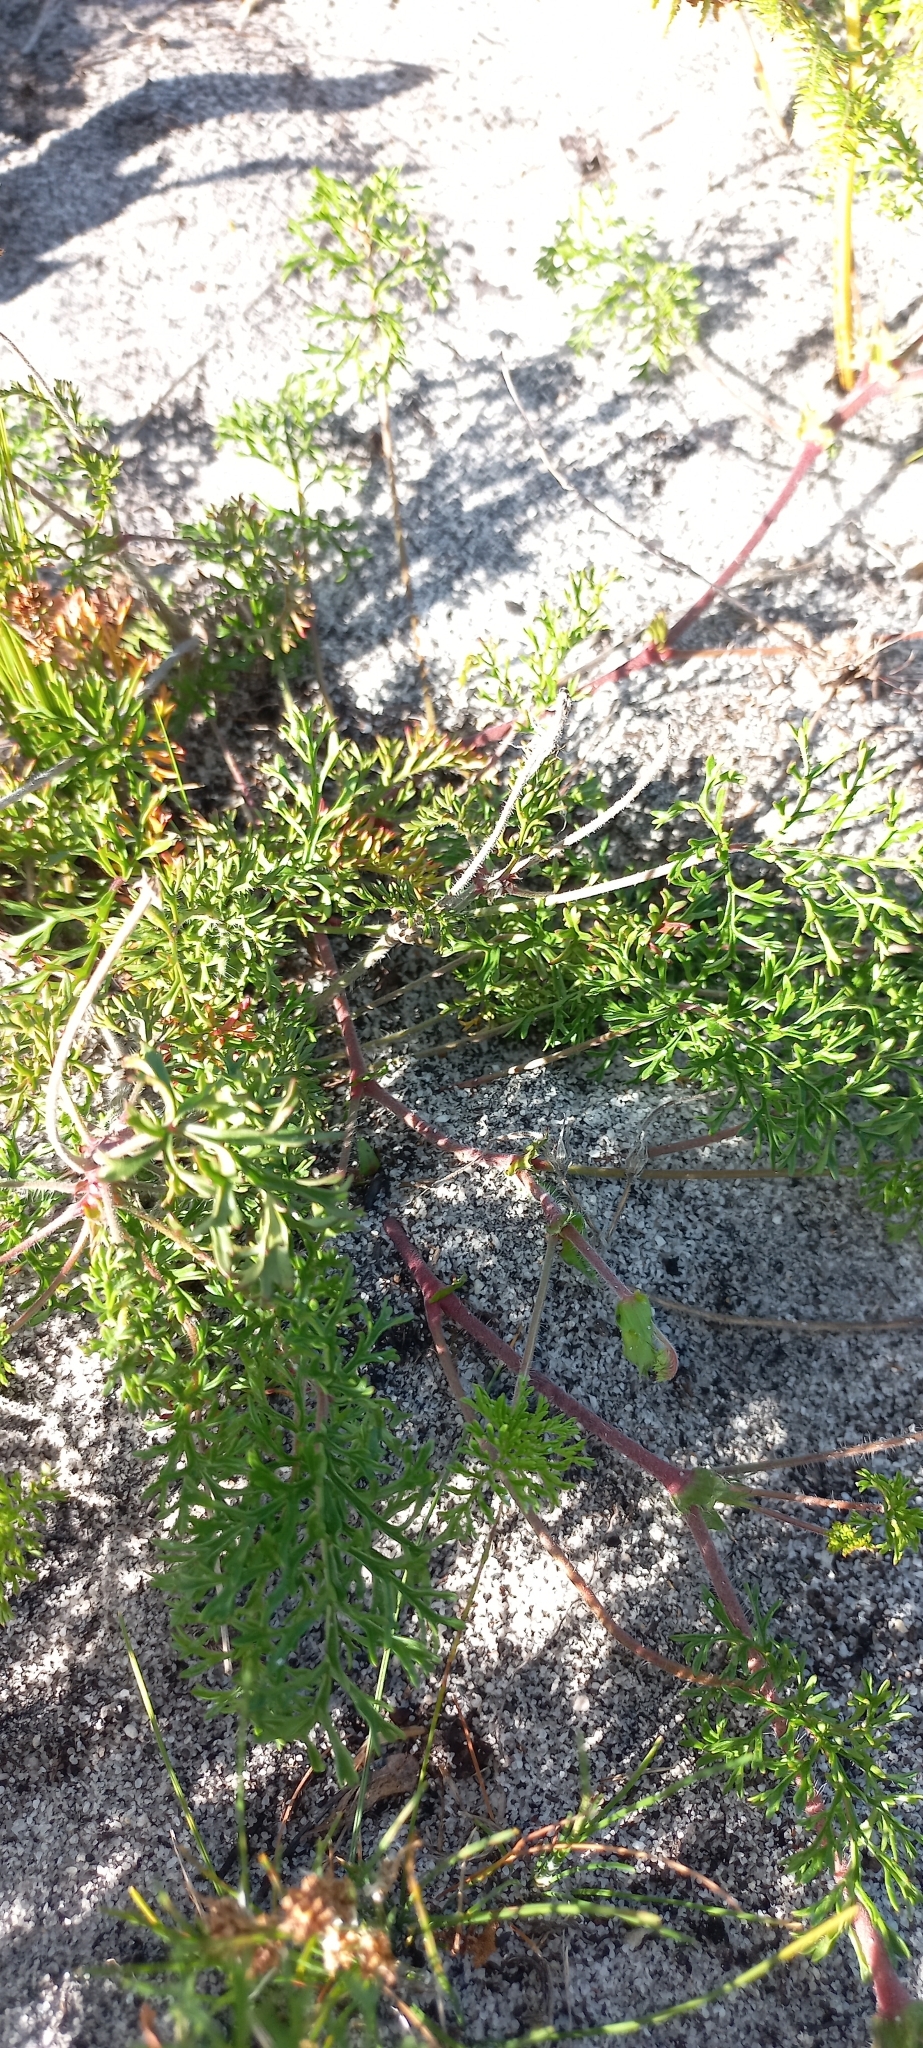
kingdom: Plantae
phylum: Tracheophyta
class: Magnoliopsida
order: Geraniales
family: Geraniaceae
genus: Pelargonium
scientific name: Pelargonium myrrhifolium
